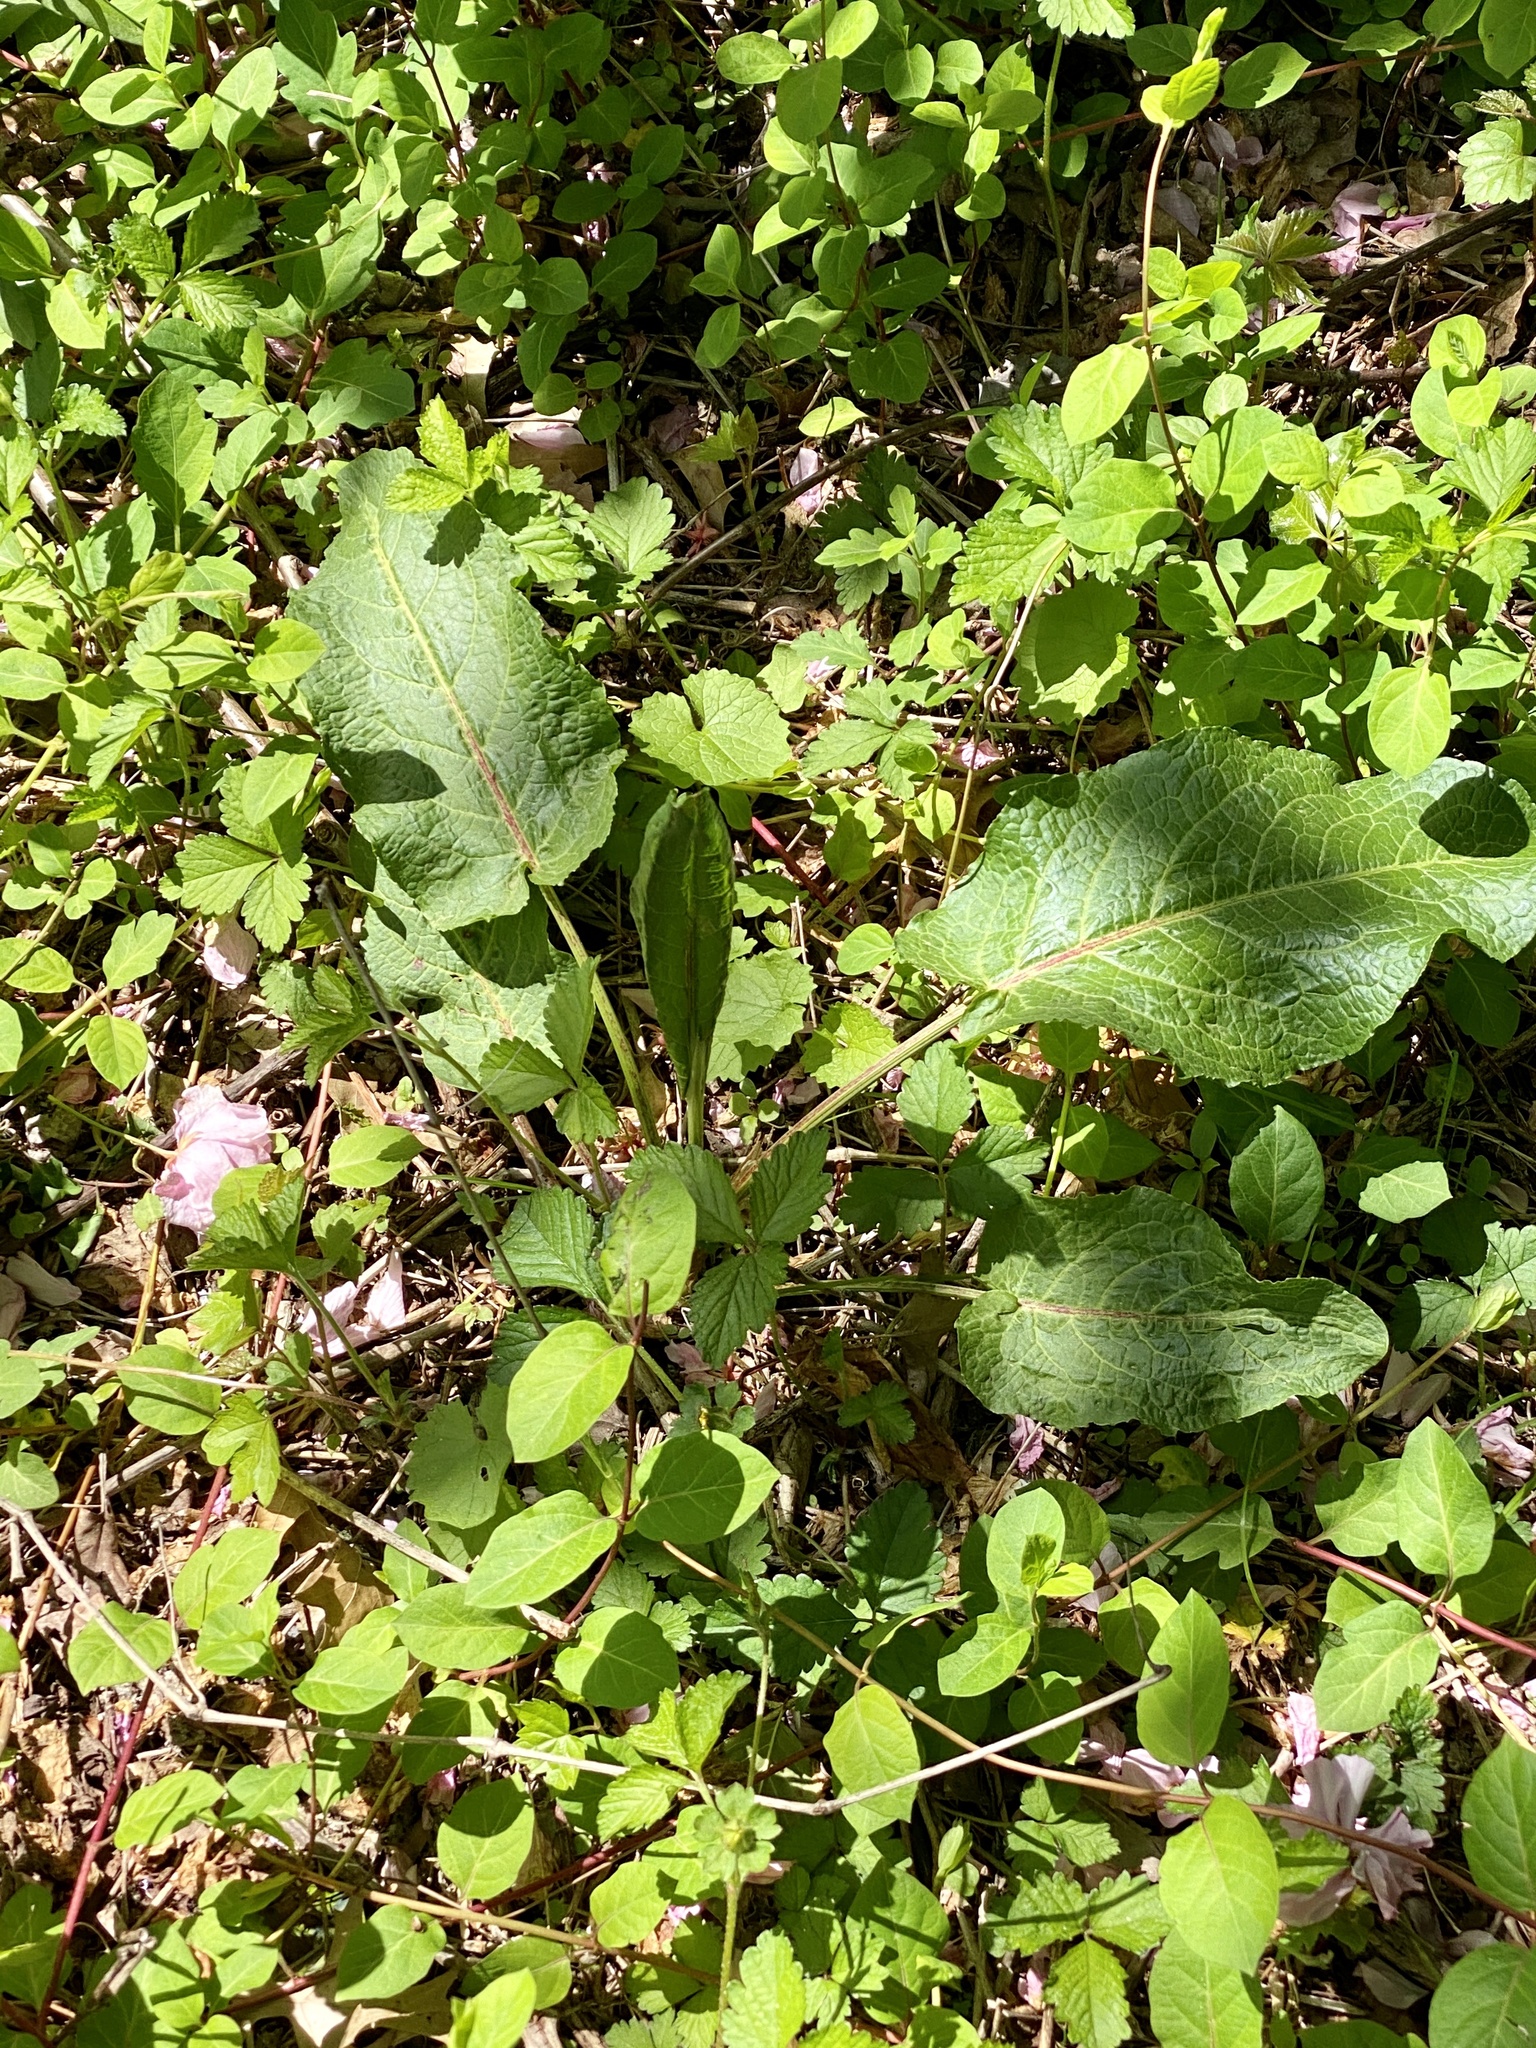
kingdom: Plantae
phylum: Tracheophyta
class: Magnoliopsida
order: Caryophyllales
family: Polygonaceae
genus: Rumex
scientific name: Rumex obtusifolius
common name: Bitter dock
